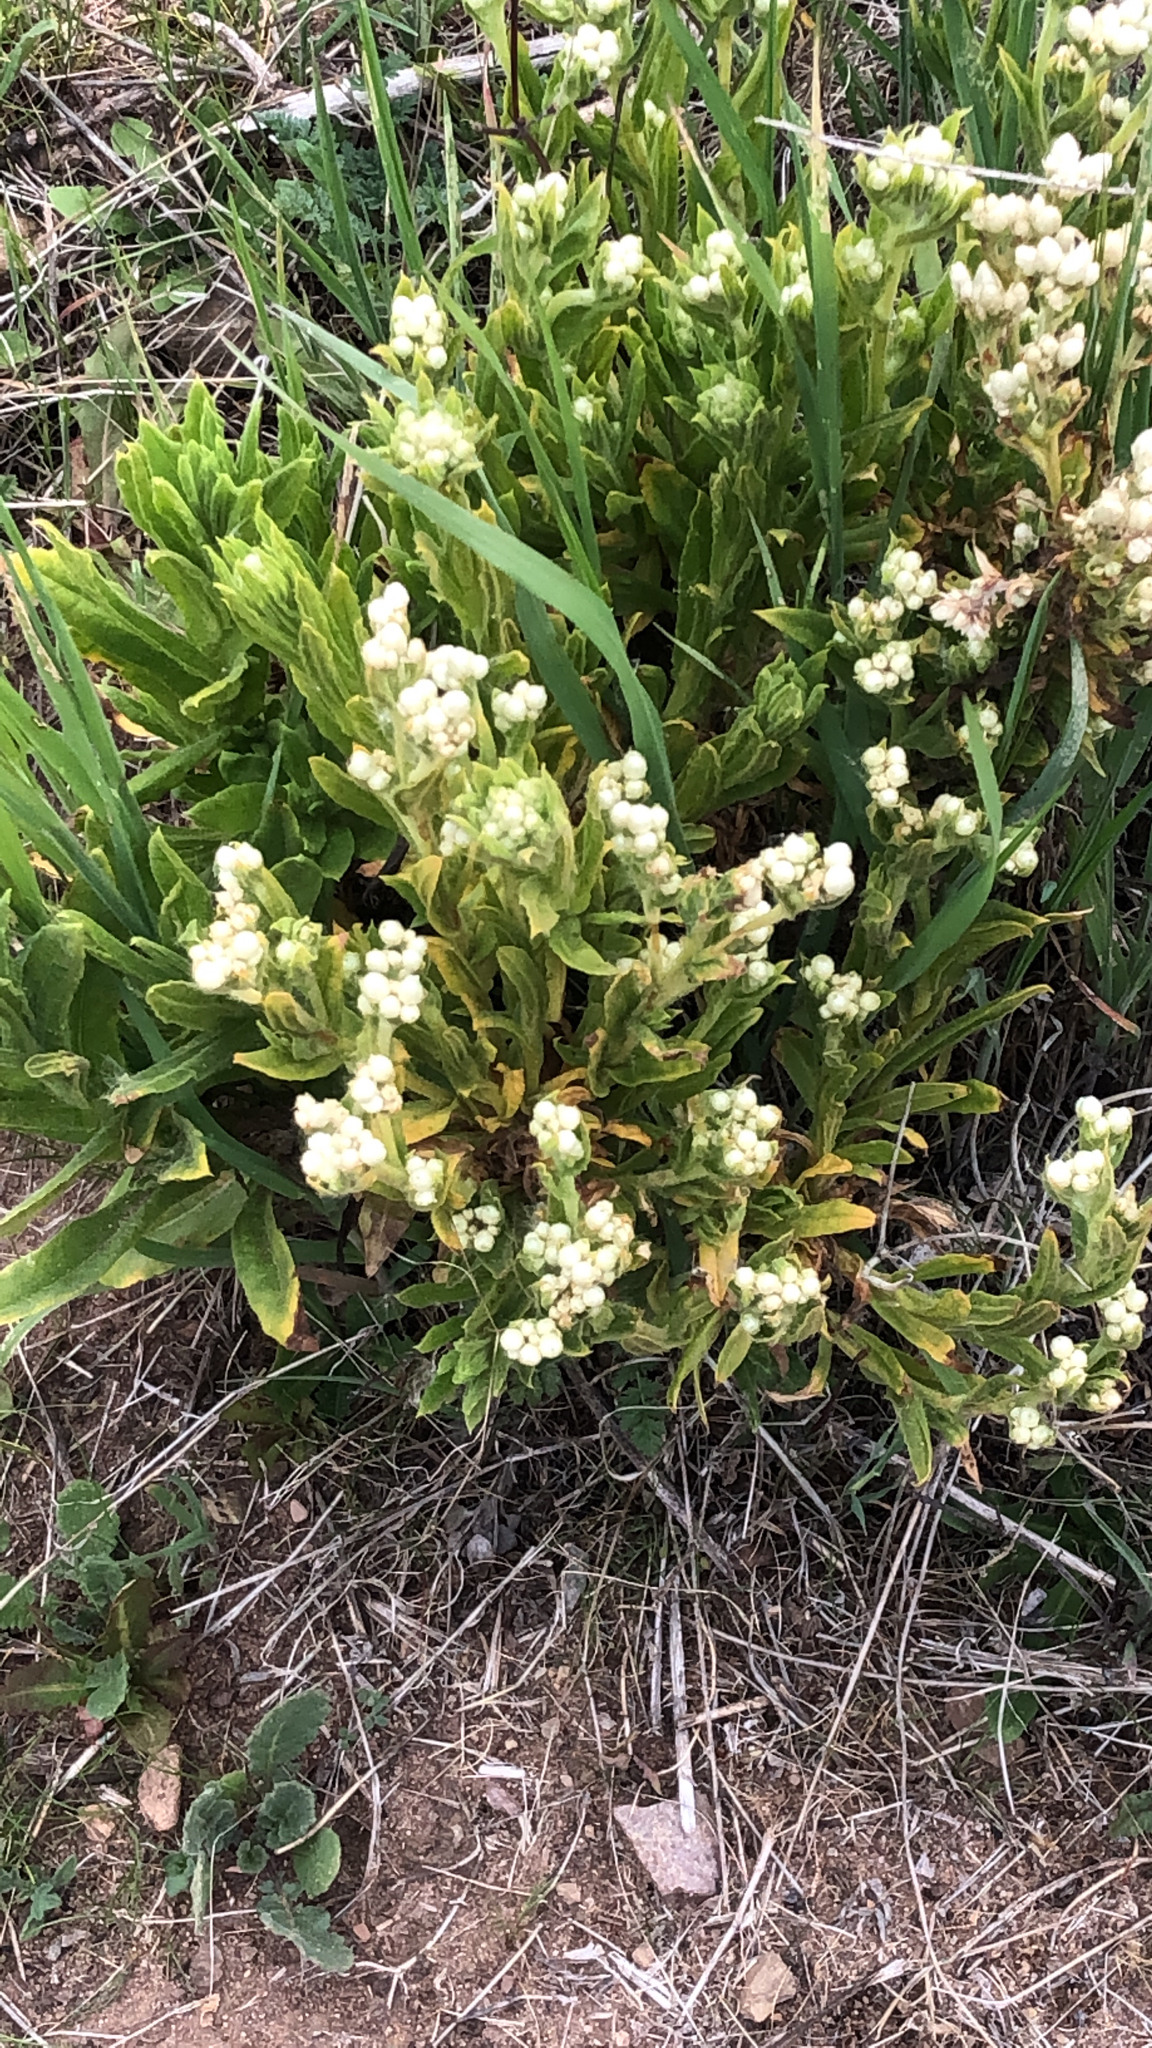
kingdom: Plantae
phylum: Tracheophyta
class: Magnoliopsida
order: Asterales
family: Asteraceae
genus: Pseudognaphalium
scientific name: Pseudognaphalium californicum
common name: California rabbit-tobacco
